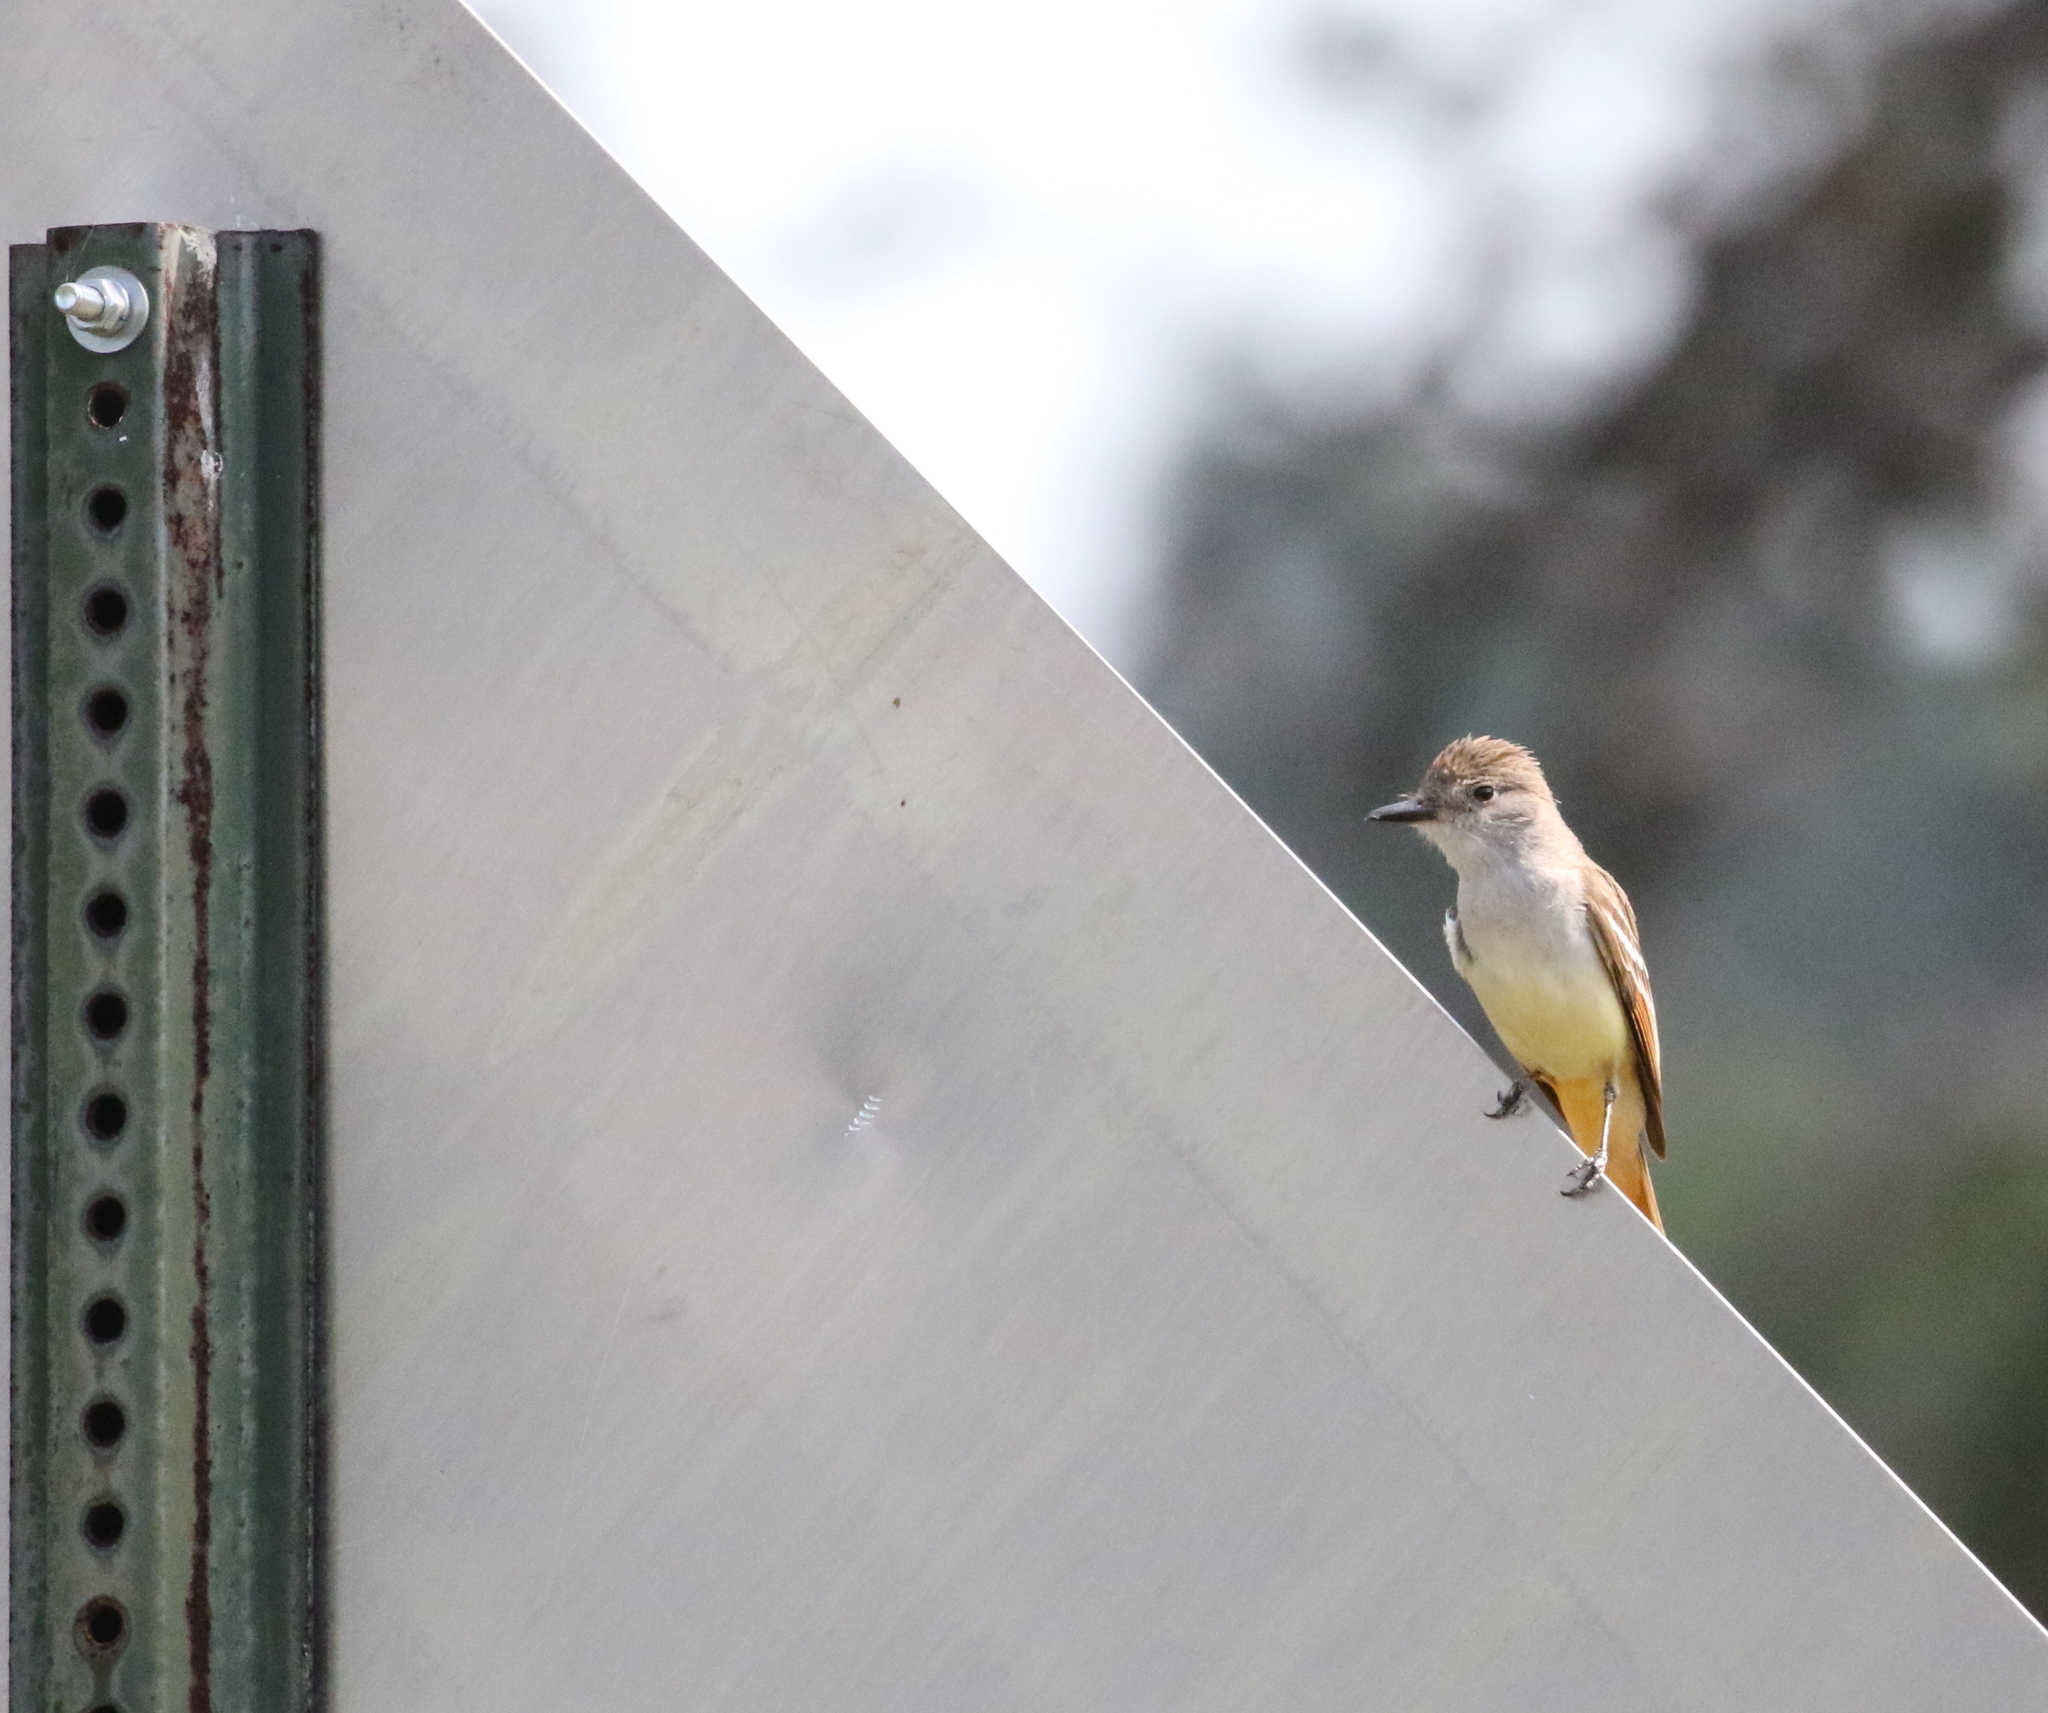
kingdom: Animalia
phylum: Chordata
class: Aves
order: Passeriformes
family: Tyrannidae
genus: Myiarchus
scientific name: Myiarchus cinerascens
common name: Ash-throated flycatcher
